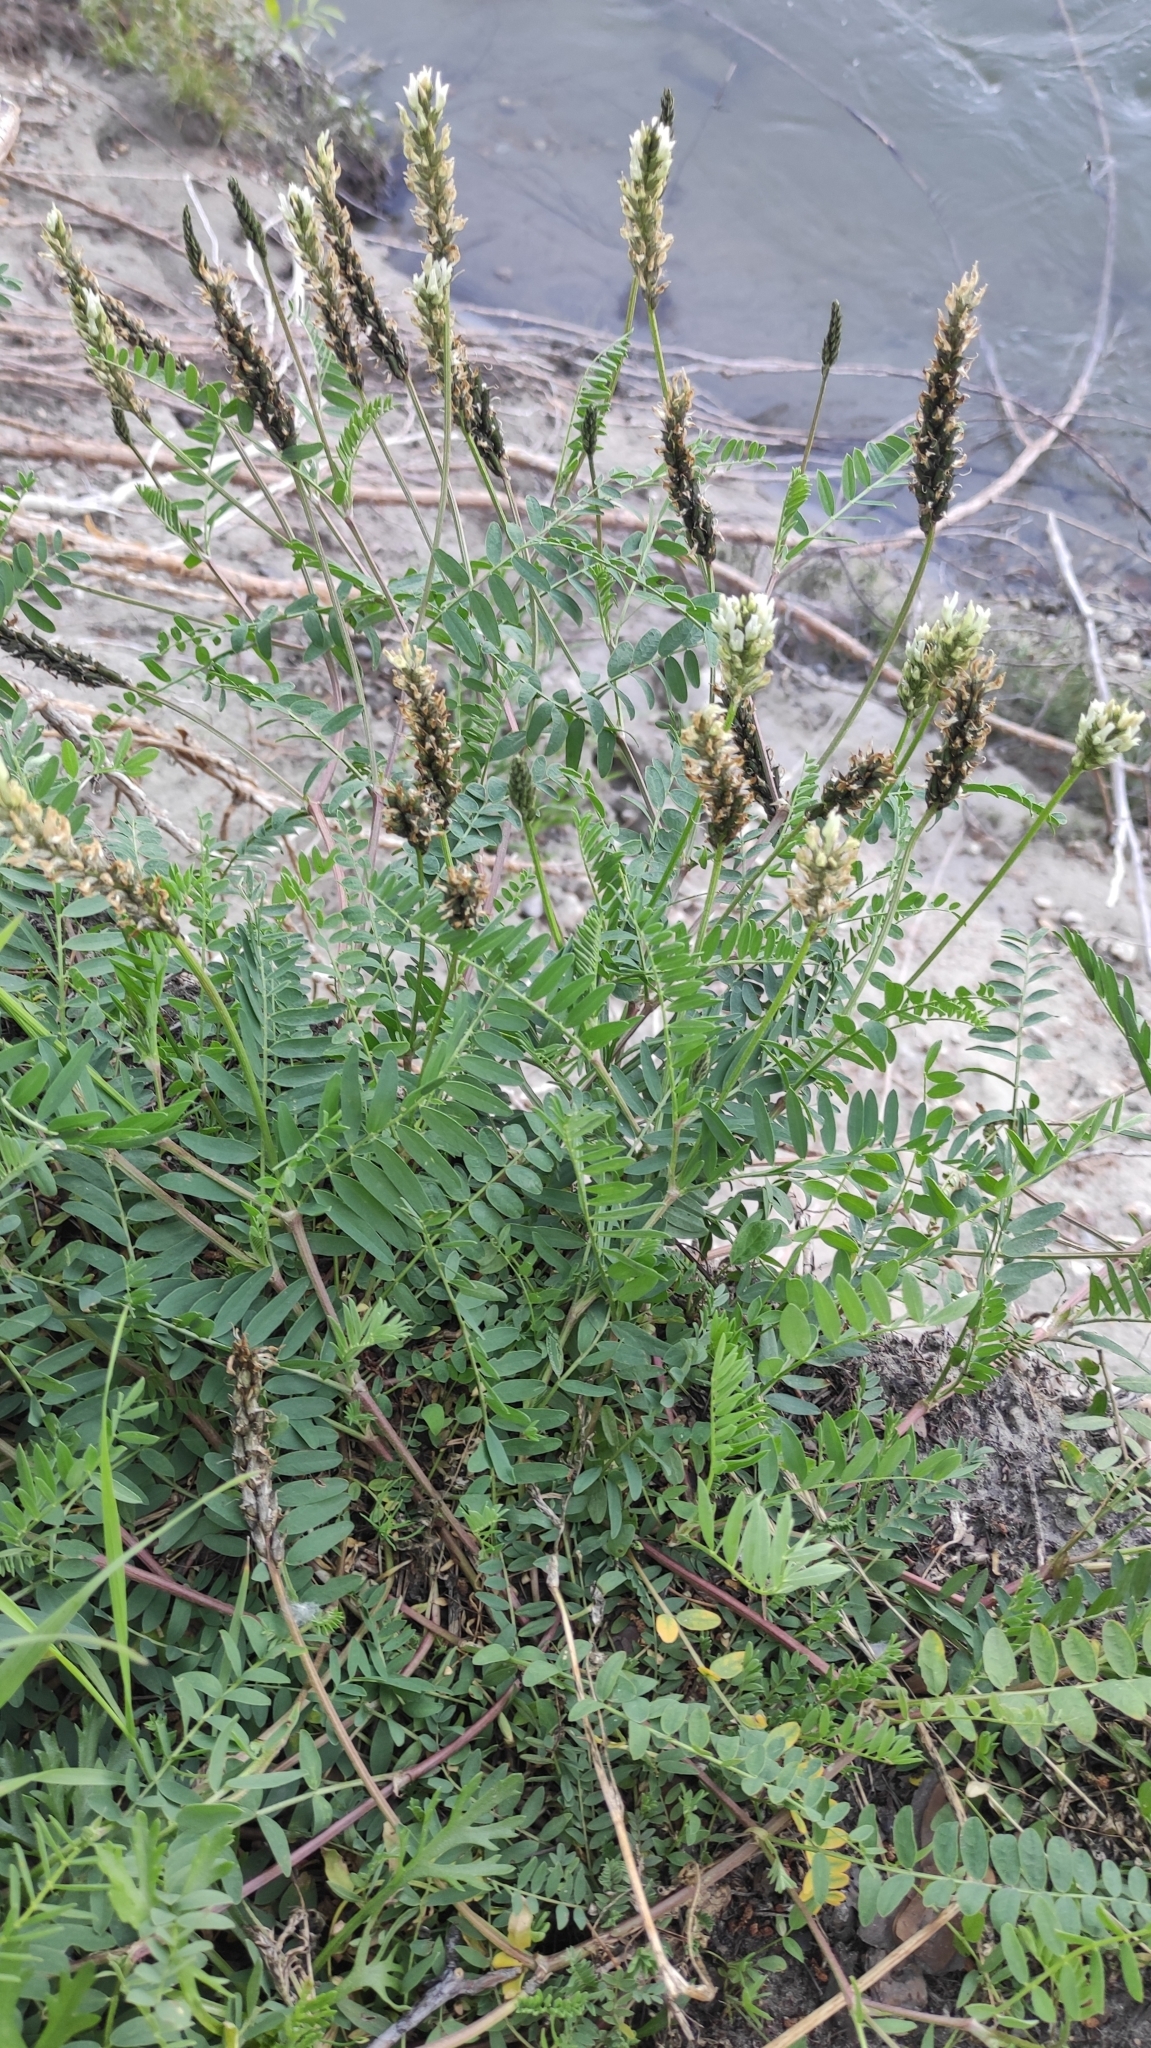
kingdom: Plantae
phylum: Tracheophyta
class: Magnoliopsida
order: Fabales
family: Fabaceae
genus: Astragalus
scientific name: Astragalus laxmannii
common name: Laxmann's milk-vetch
